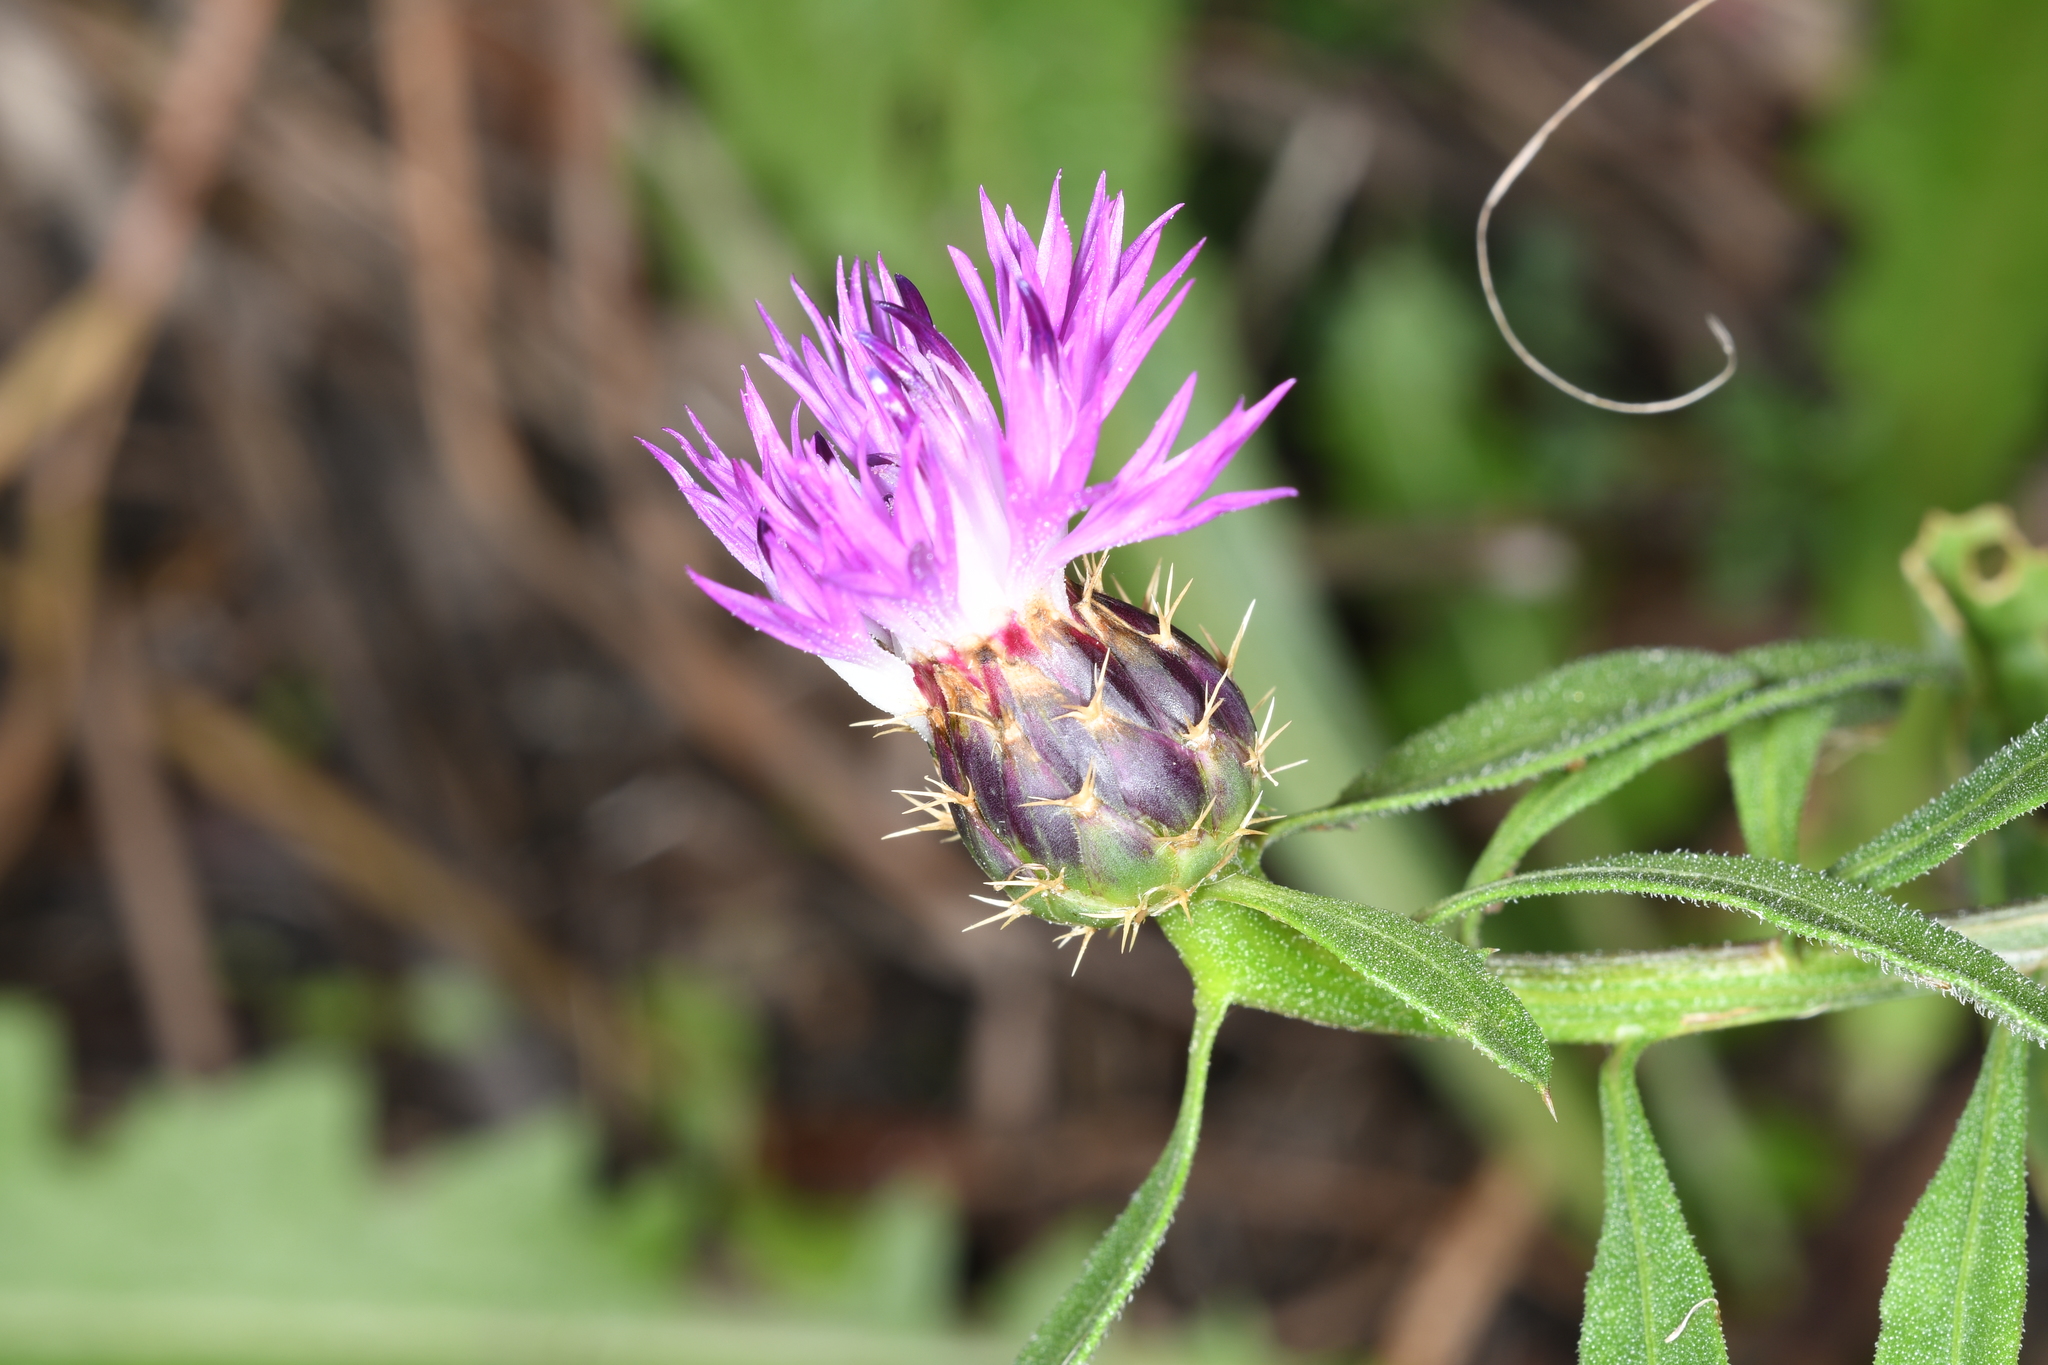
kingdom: Plantae
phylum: Tracheophyta
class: Magnoliopsida
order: Asterales
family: Asteraceae
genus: Centaurea
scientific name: Centaurea aspera
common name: Rough star-thistle
